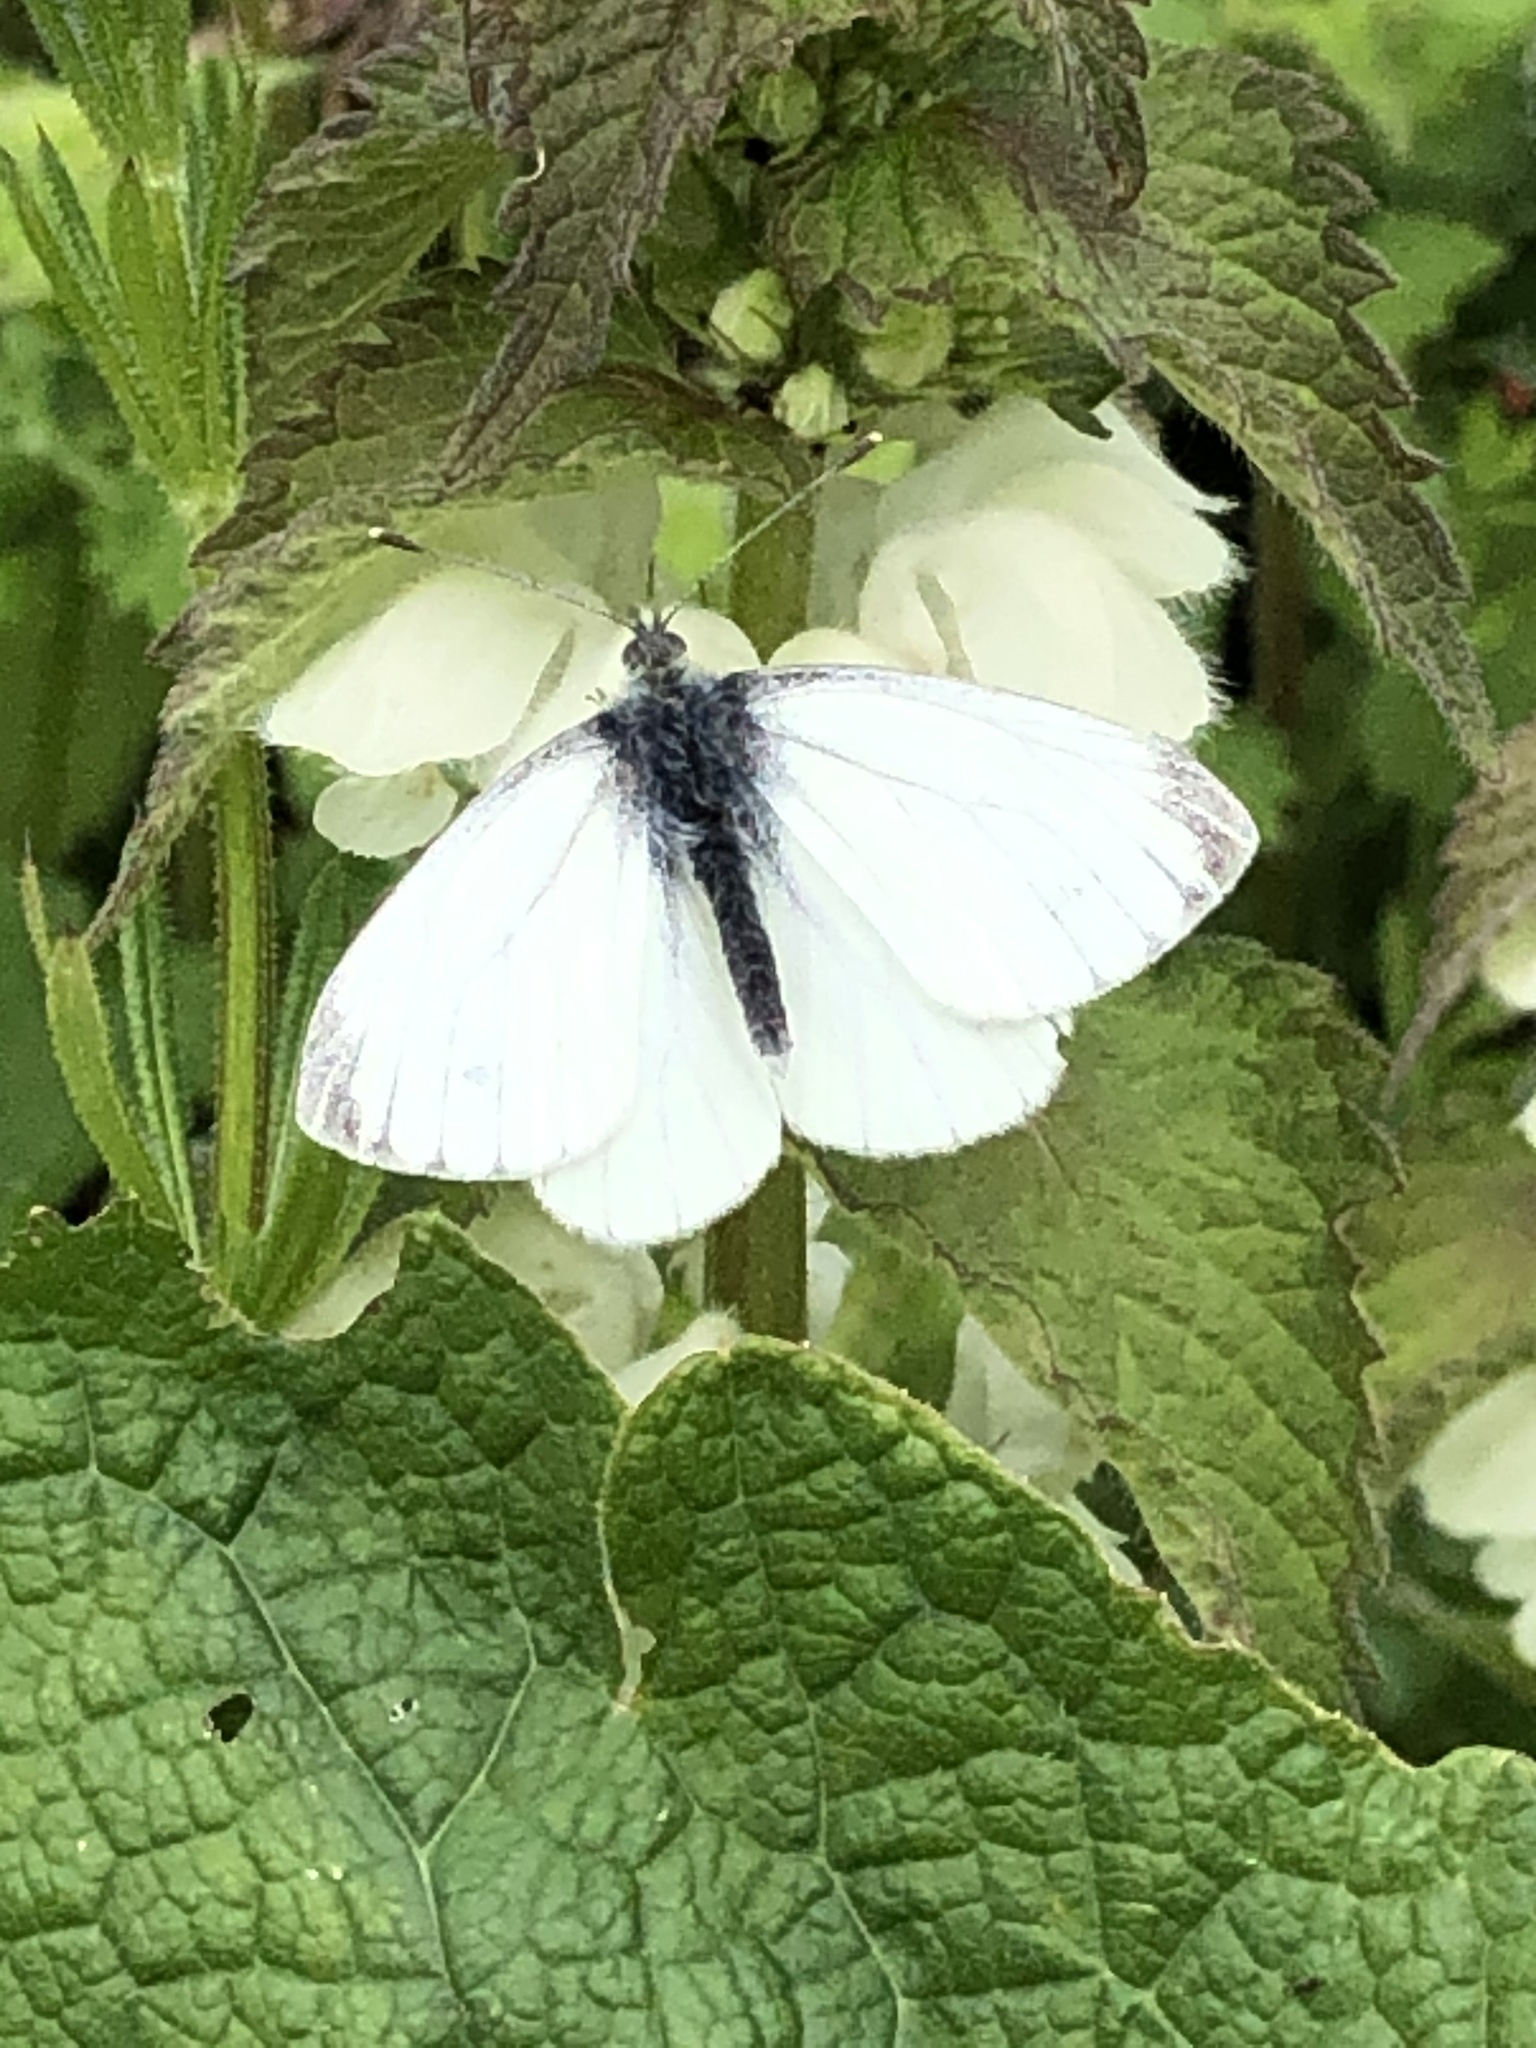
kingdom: Animalia
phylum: Arthropoda
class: Insecta
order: Lepidoptera
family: Pieridae
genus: Pieris
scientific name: Pieris napi
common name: Green-veined white
